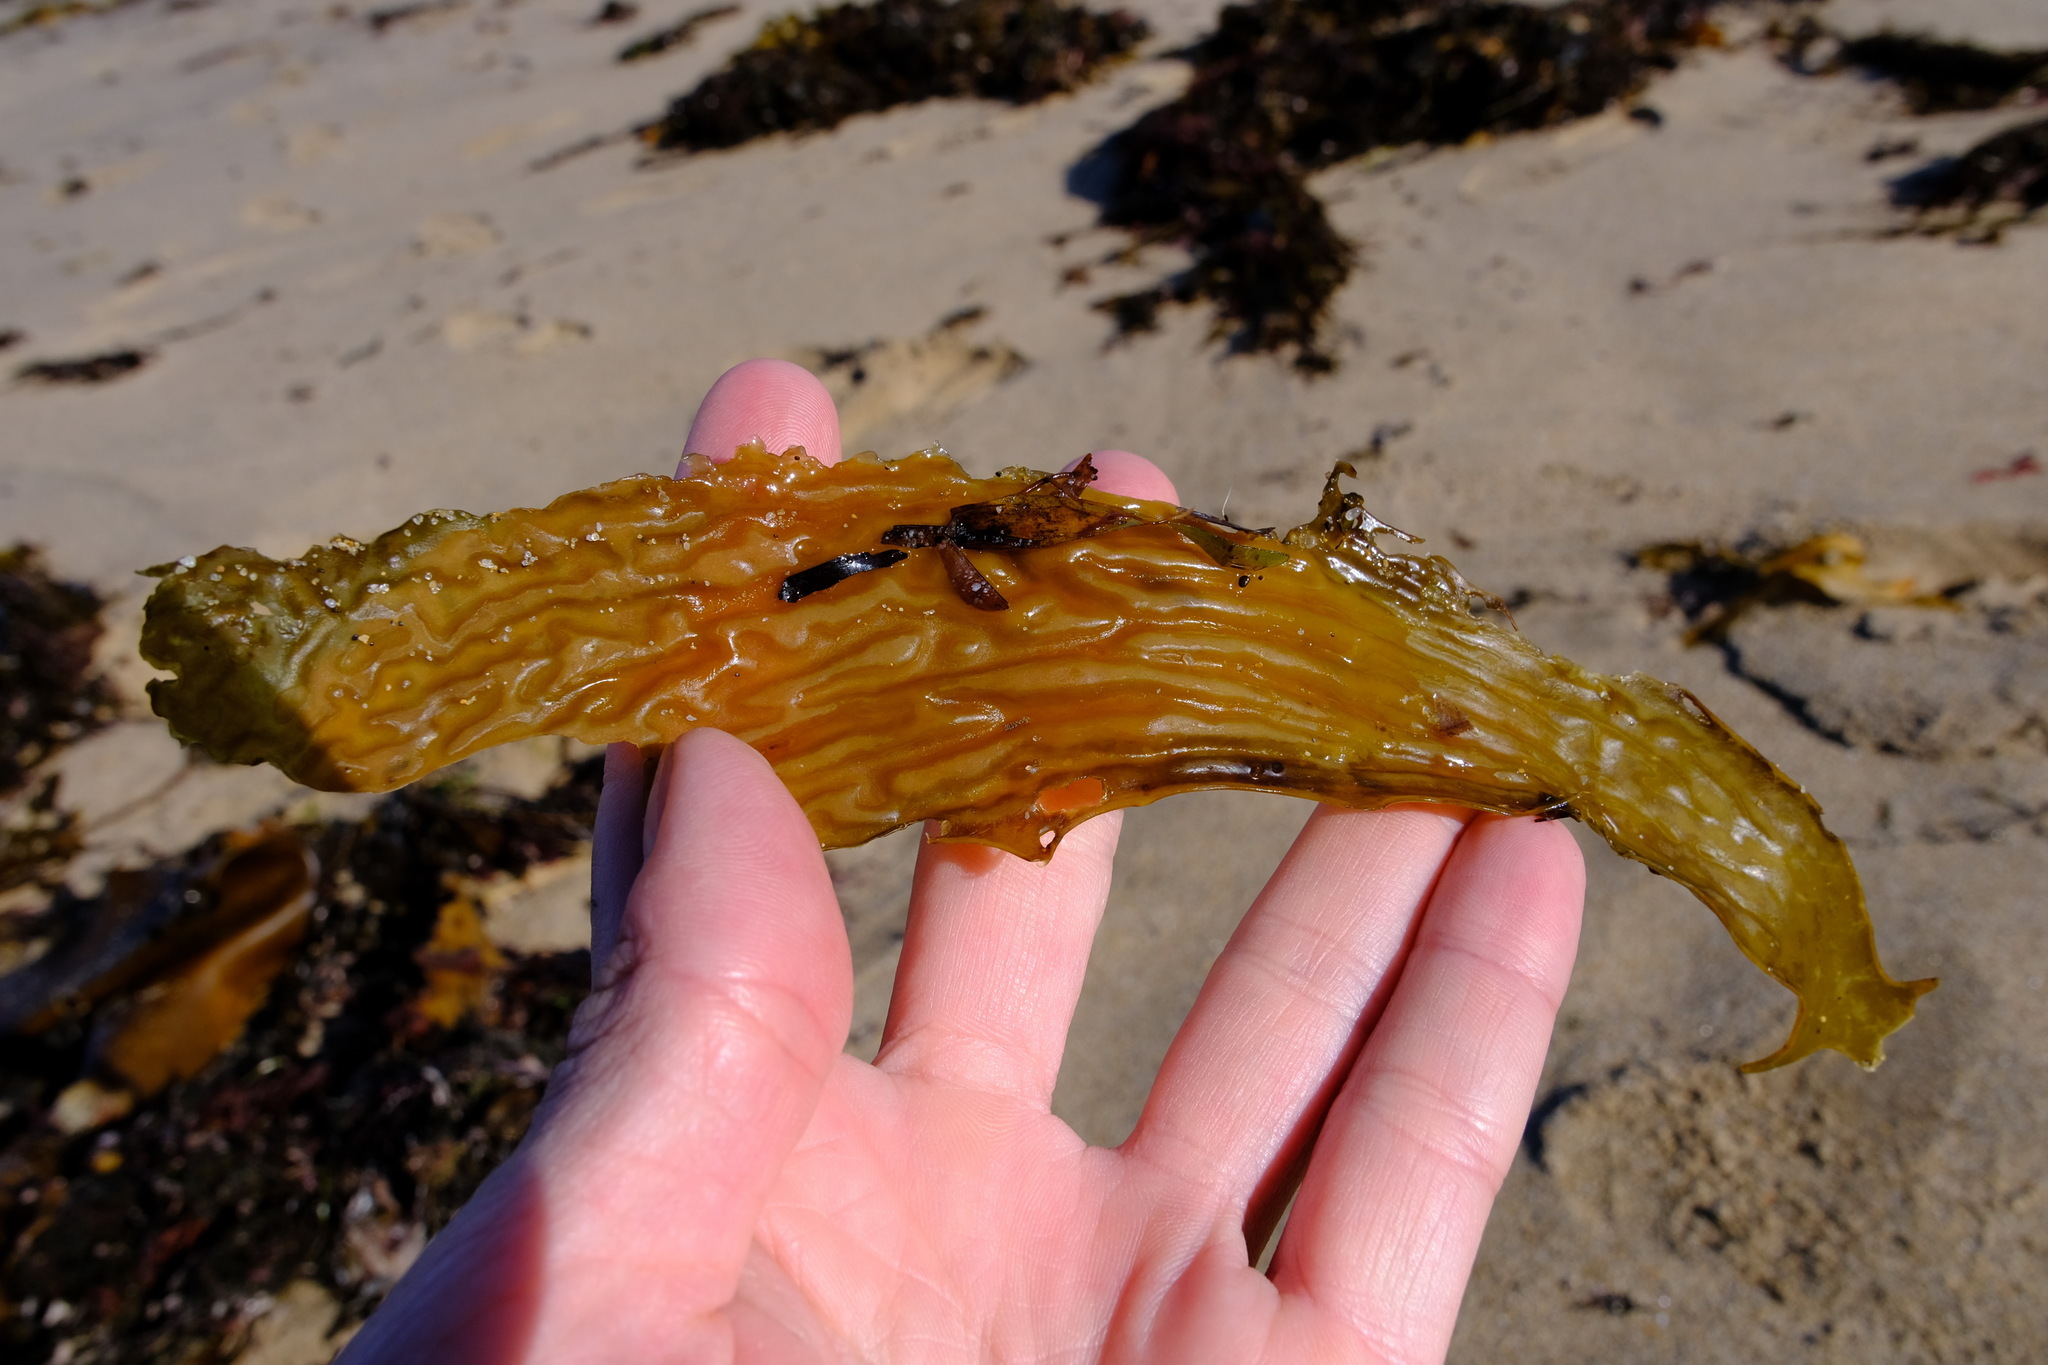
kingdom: Chromista
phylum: Ochrophyta
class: Phaeophyceae
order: Laminariales
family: Lessoniaceae
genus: Ecklonia
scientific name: Ecklonia radiata
